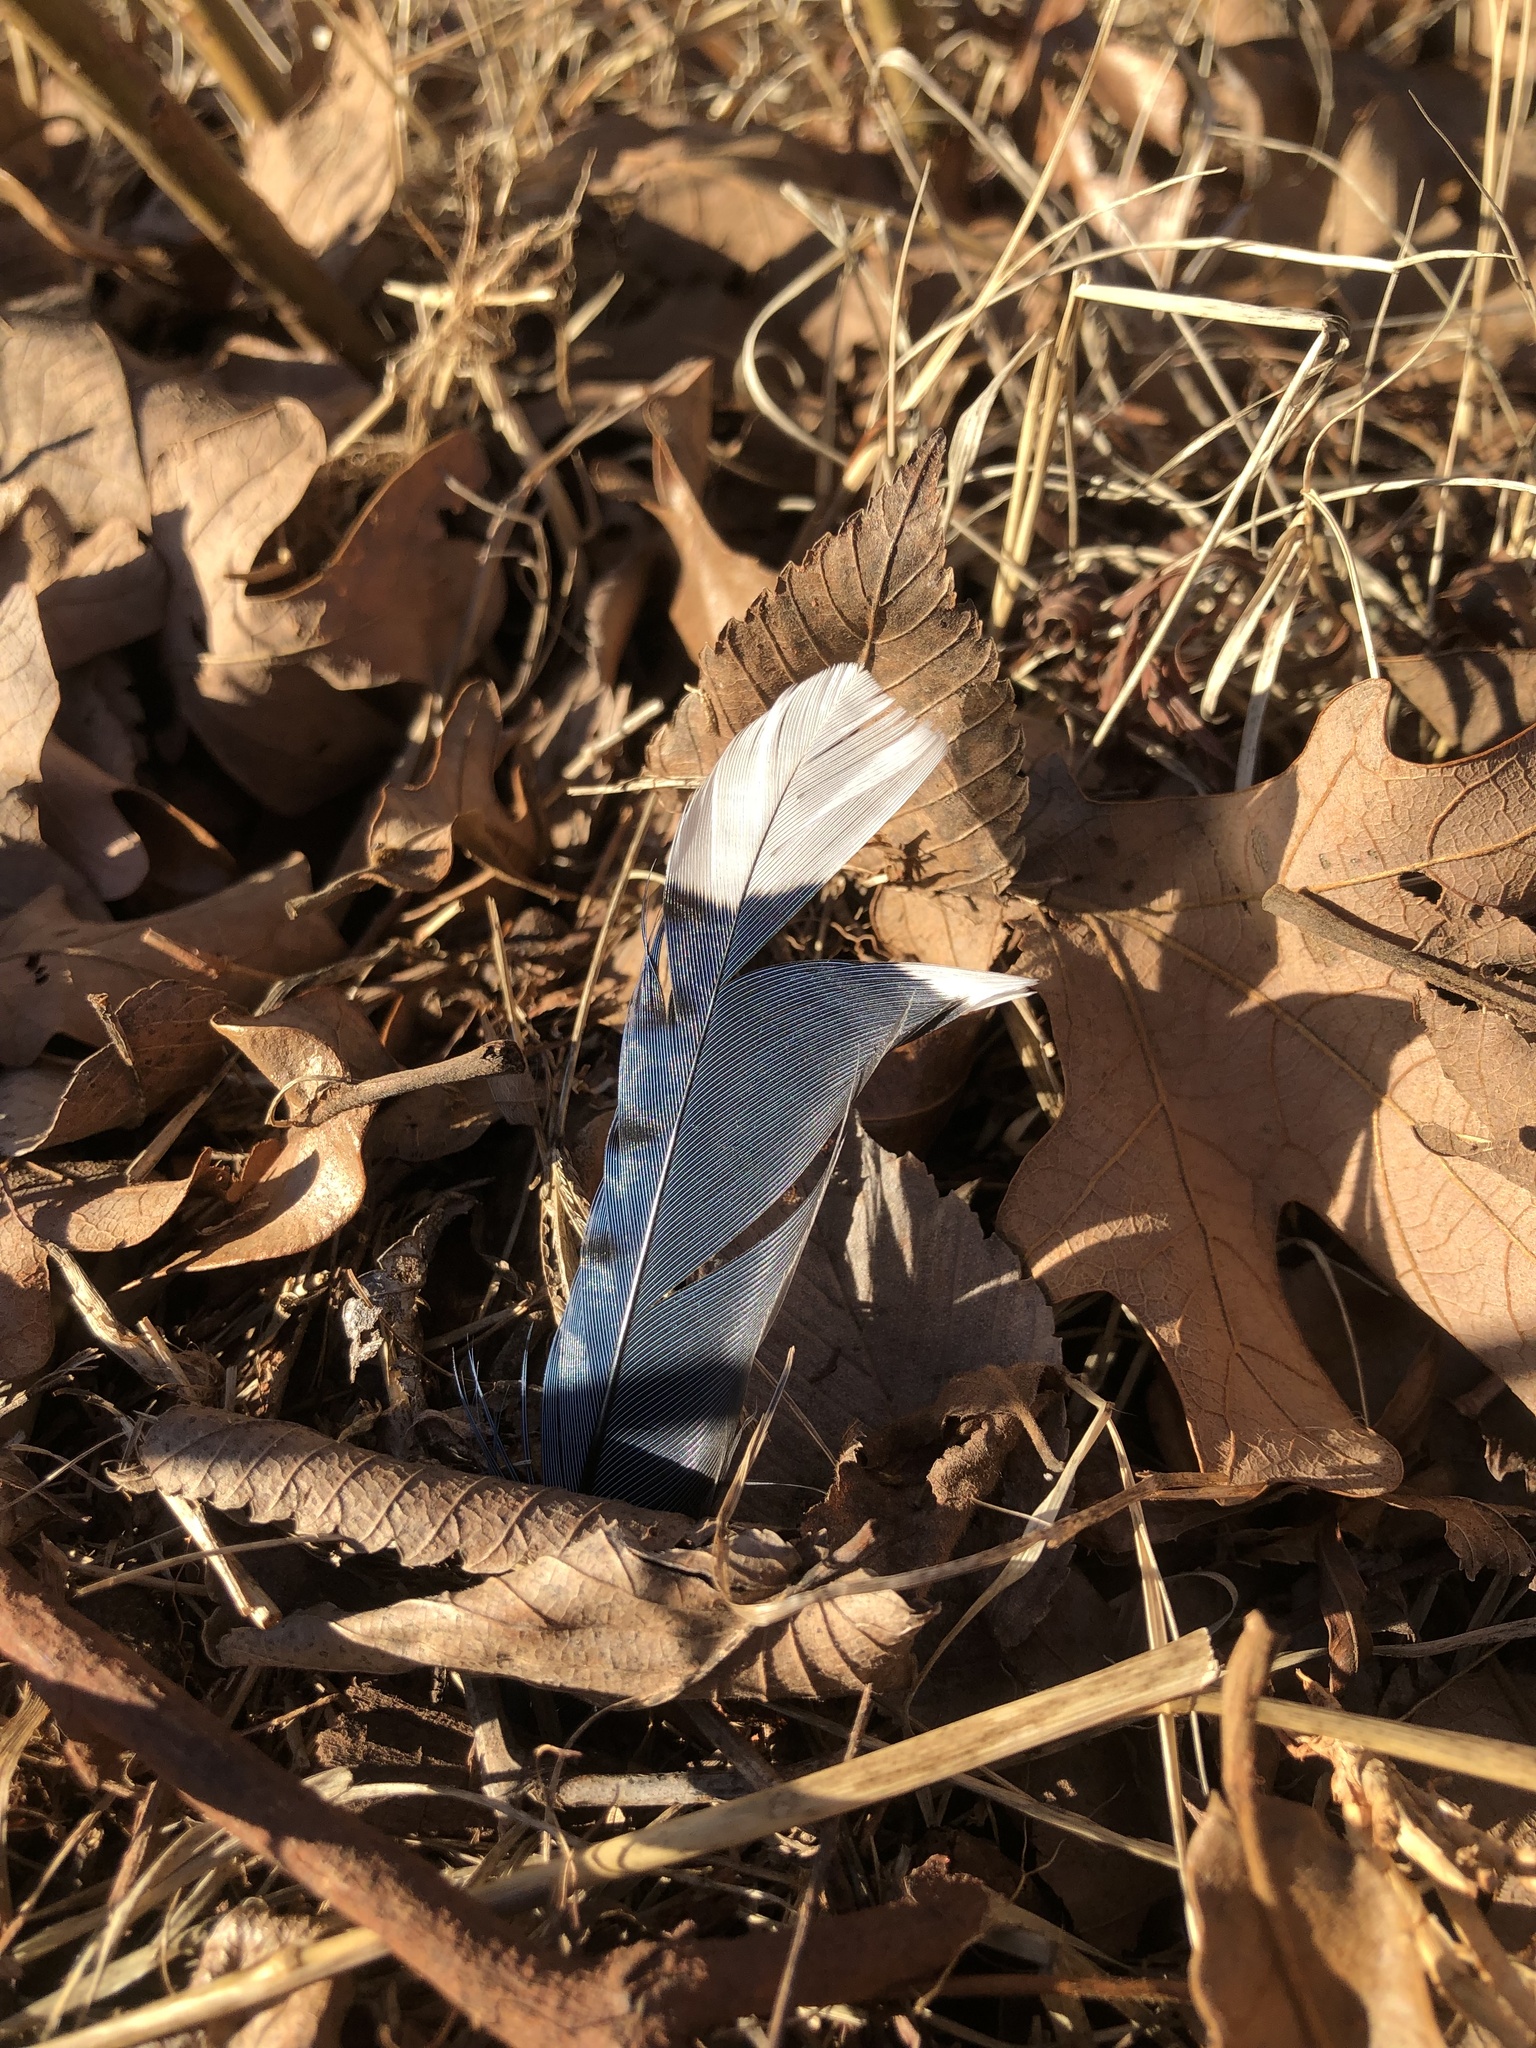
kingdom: Animalia
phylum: Chordata
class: Aves
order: Passeriformes
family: Corvidae
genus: Cyanocitta
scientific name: Cyanocitta cristata
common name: Blue jay
